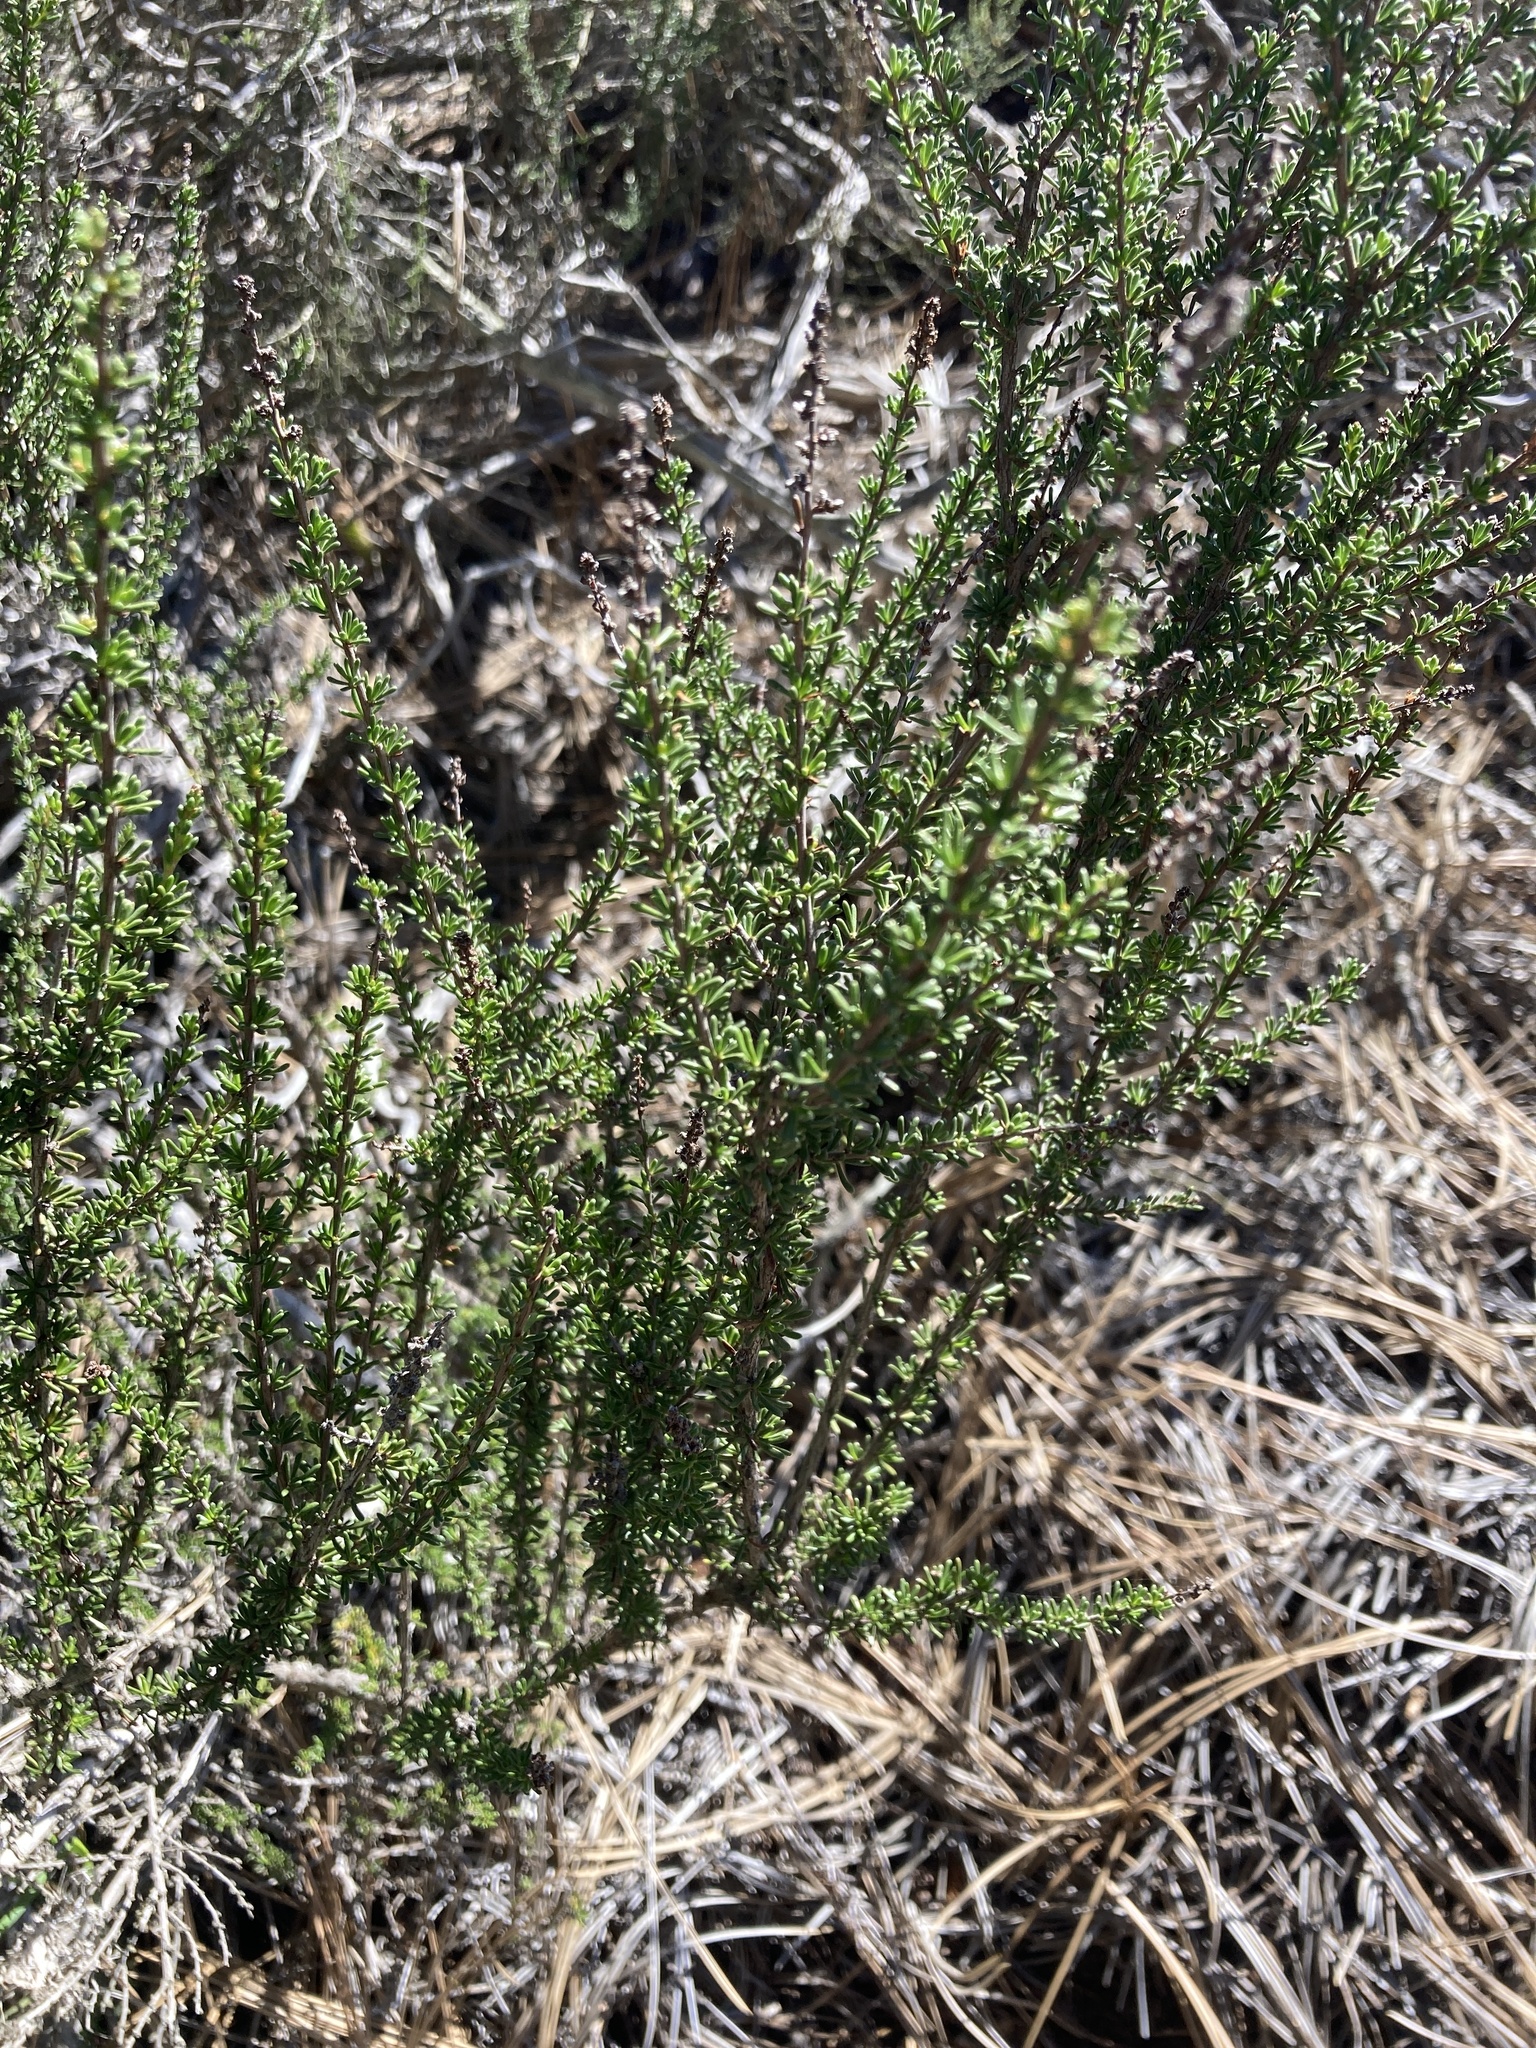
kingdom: Plantae
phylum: Tracheophyta
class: Magnoliopsida
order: Rosales
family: Rosaceae
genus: Adenostoma
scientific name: Adenostoma fasciculatum
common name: Chamise
